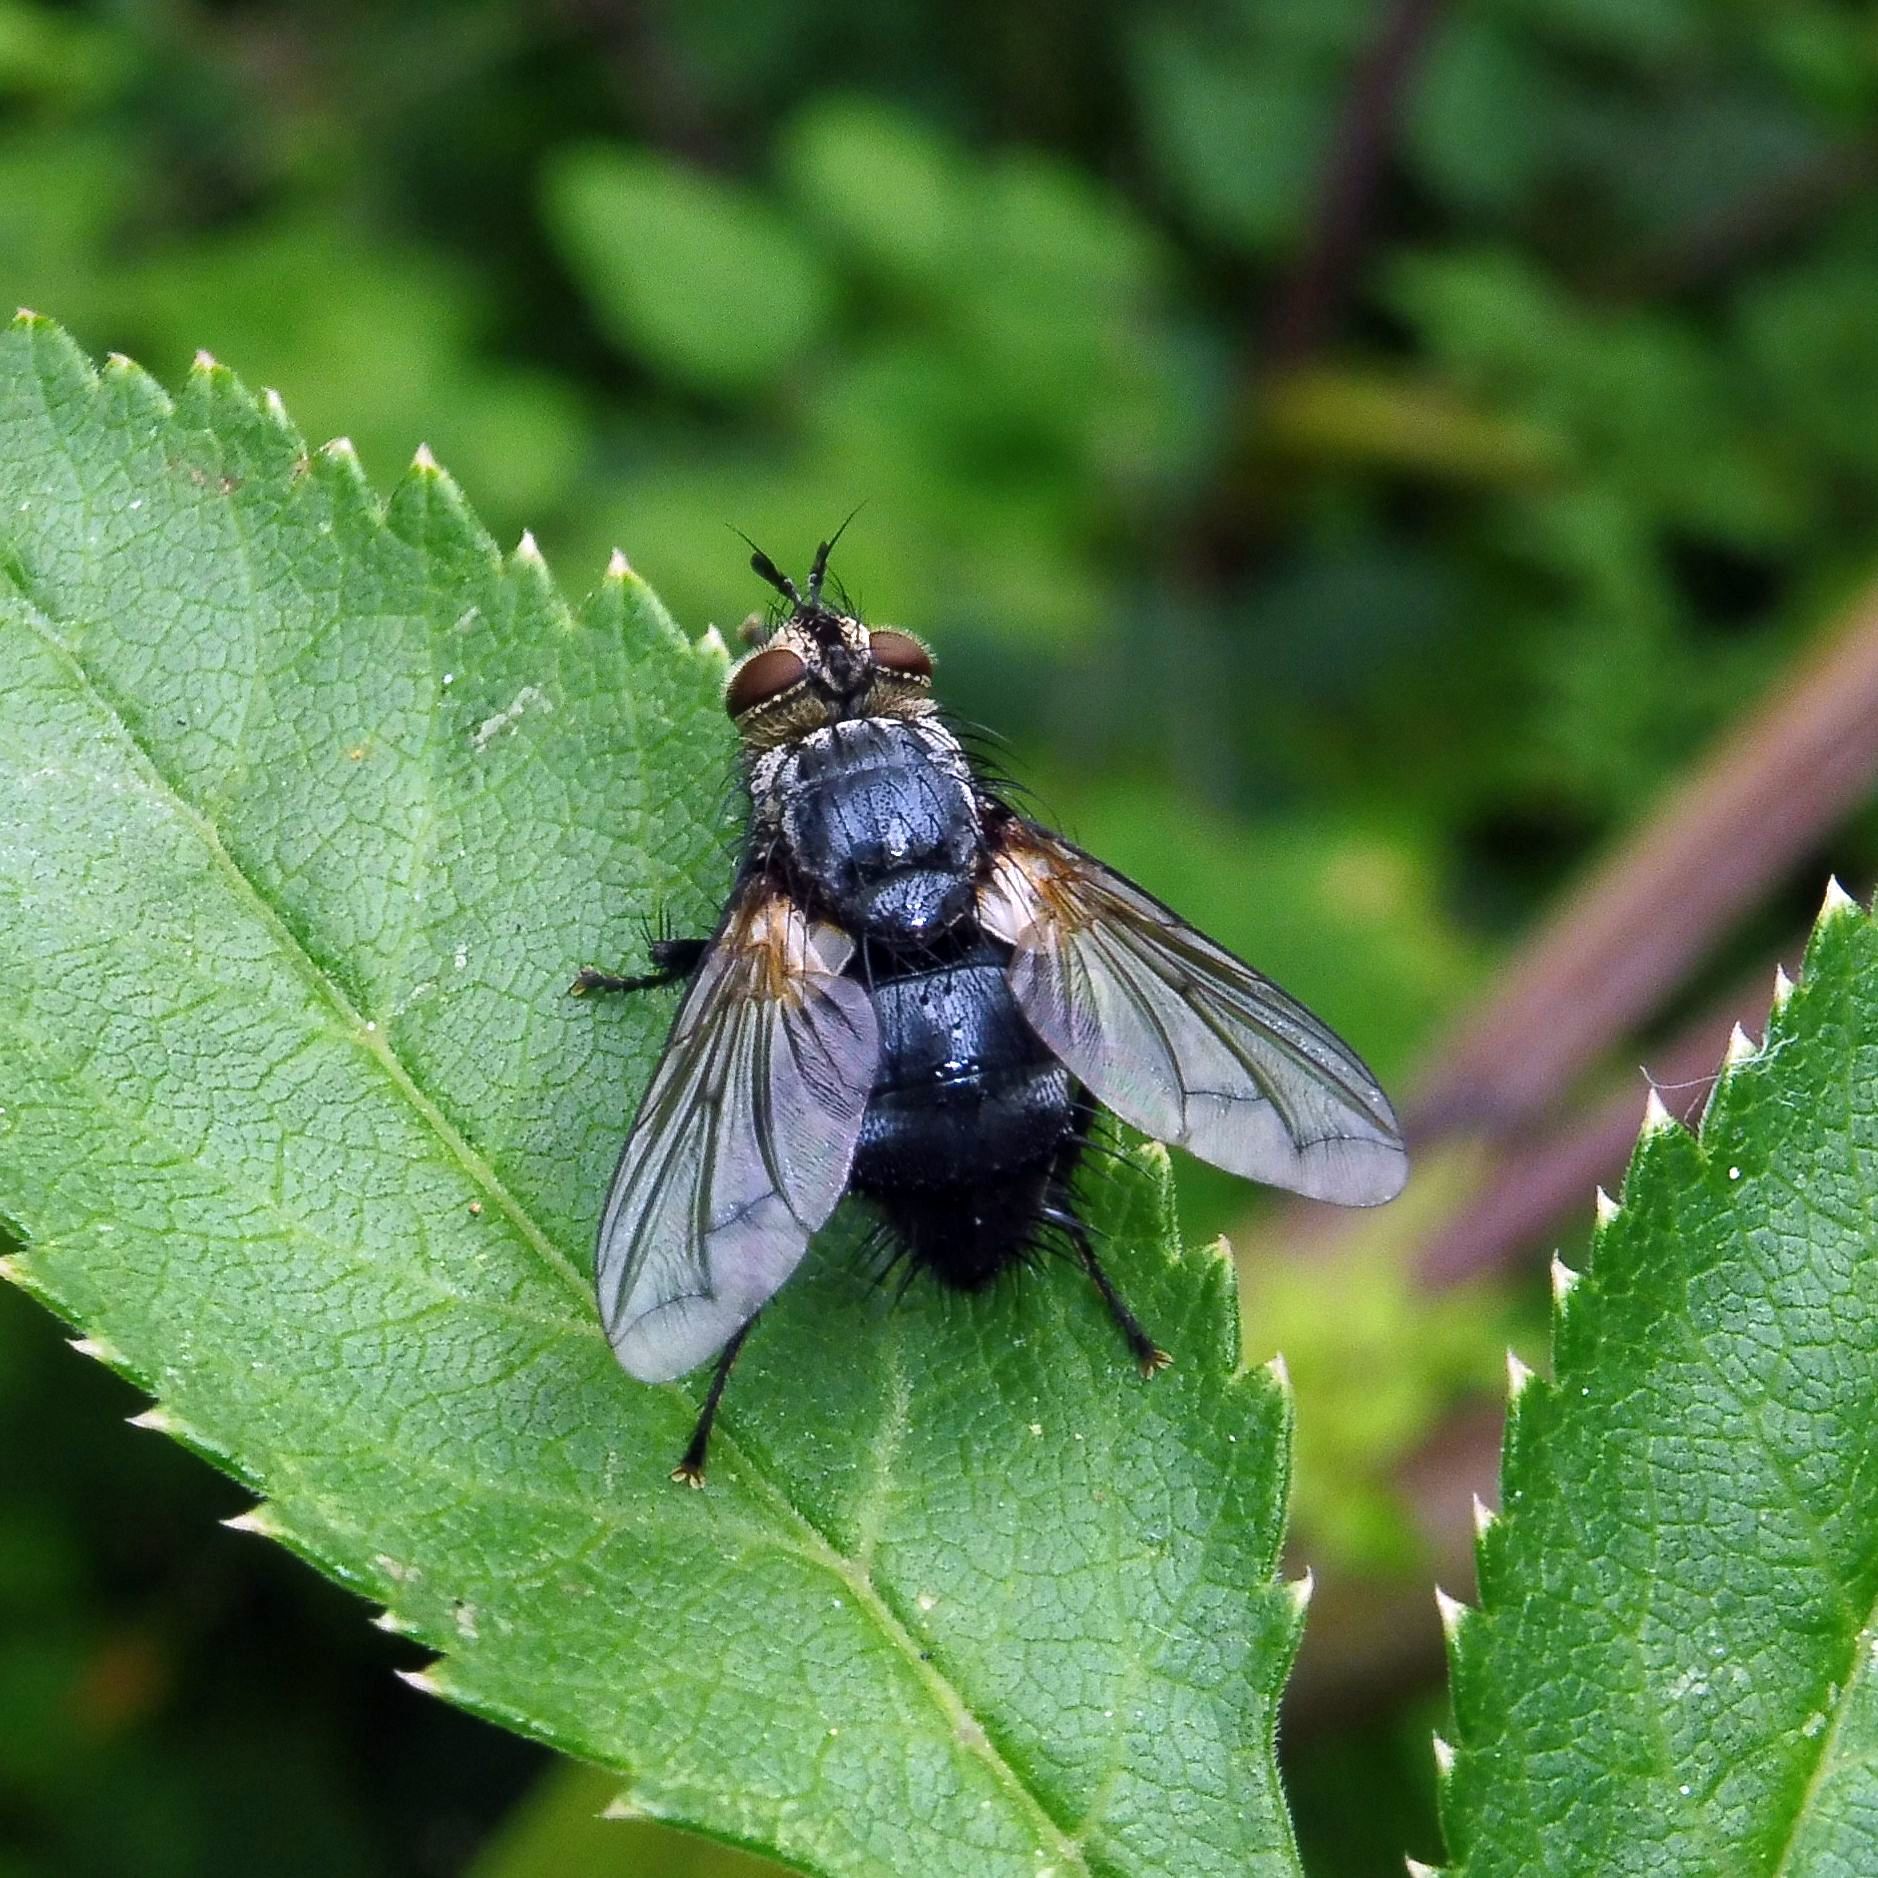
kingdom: Animalia
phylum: Arthropoda
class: Insecta
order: Diptera
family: Tachinidae
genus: Eurithia
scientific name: Eurithia anthophila
